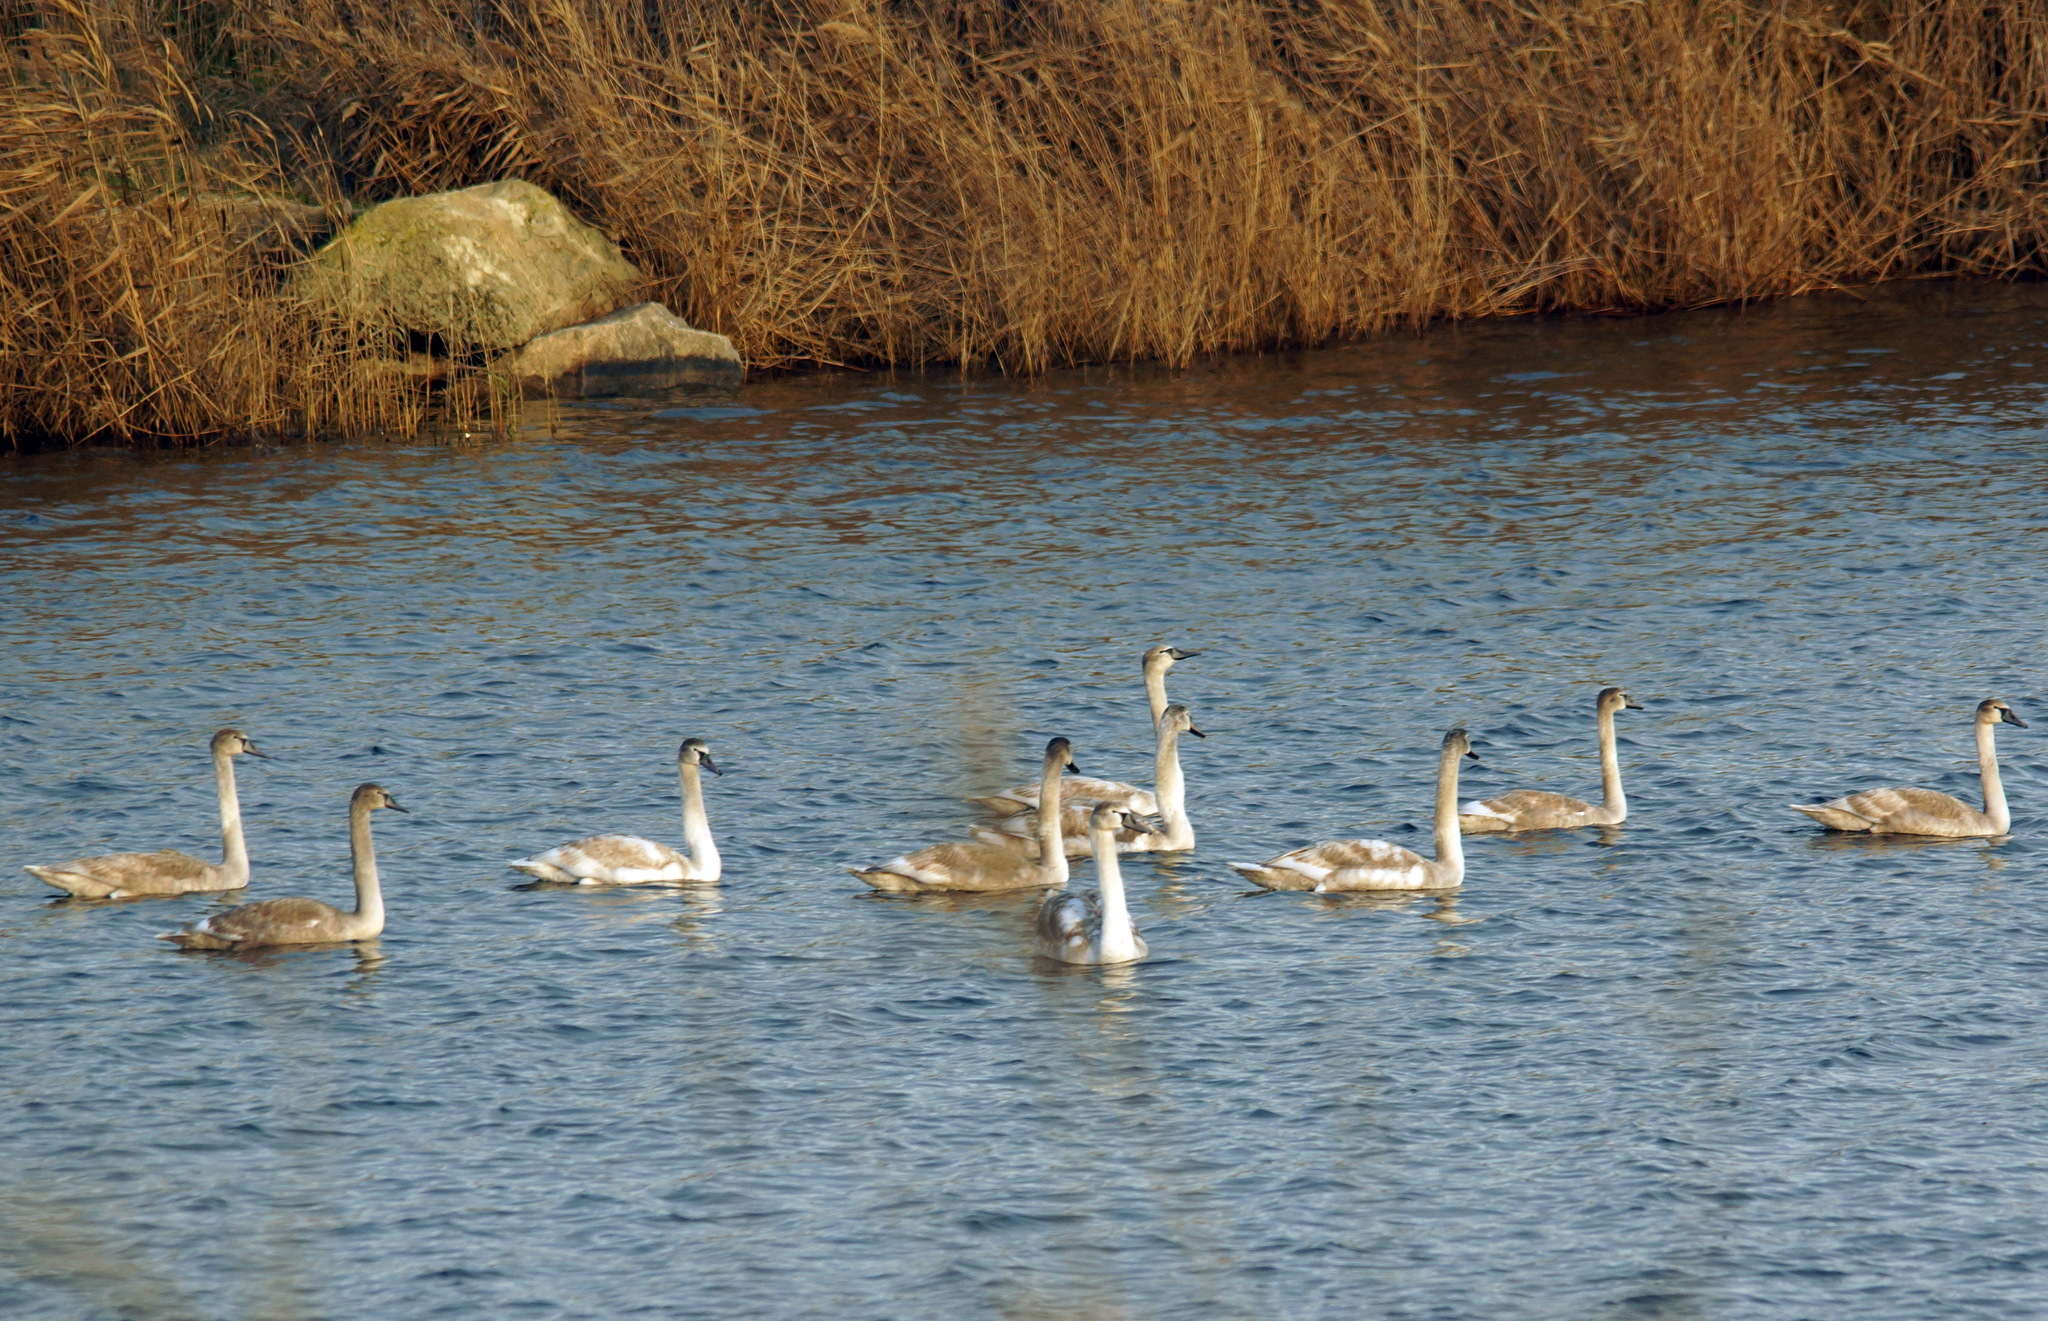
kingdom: Animalia
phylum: Chordata
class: Aves
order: Anseriformes
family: Anatidae
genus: Cygnus
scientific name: Cygnus olor
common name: Mute swan
